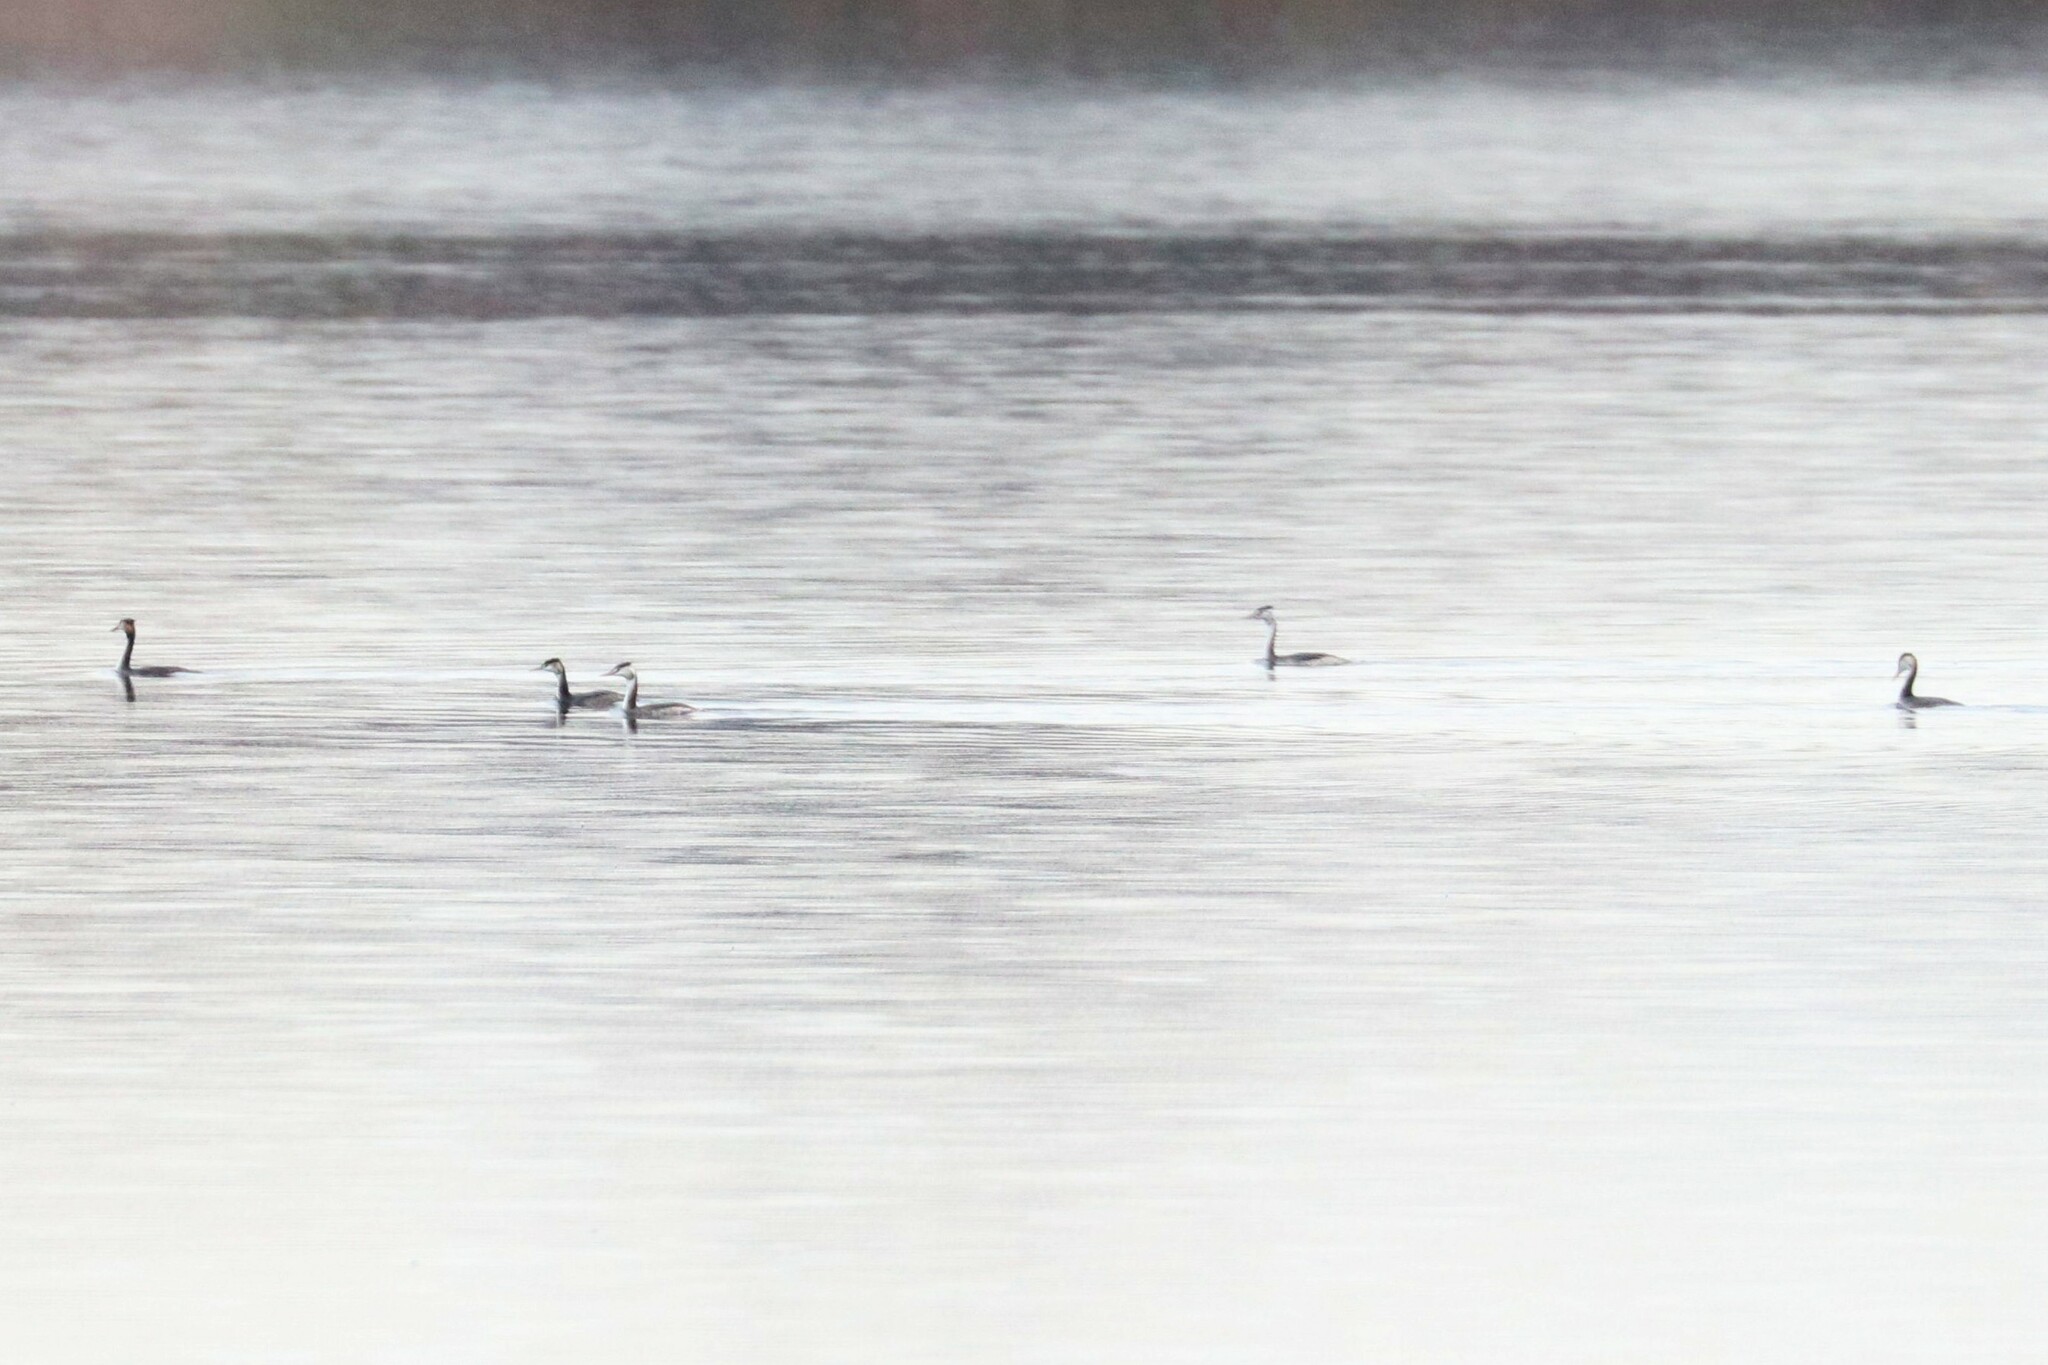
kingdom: Animalia
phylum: Chordata
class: Aves
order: Podicipediformes
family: Podicipedidae
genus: Podiceps
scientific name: Podiceps cristatus
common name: Great crested grebe
